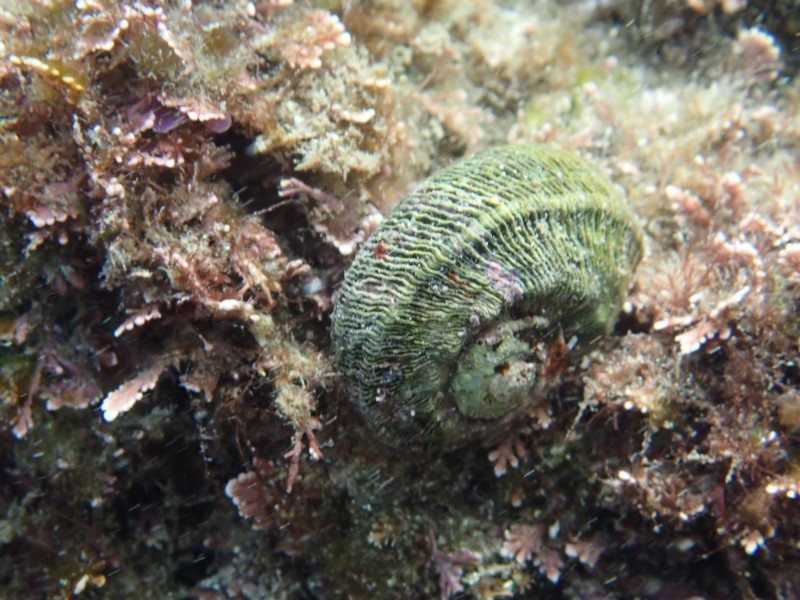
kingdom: Animalia
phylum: Mollusca
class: Gastropoda
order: Trochida
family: Turbinidae
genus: Lunella
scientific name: Lunella torquata
